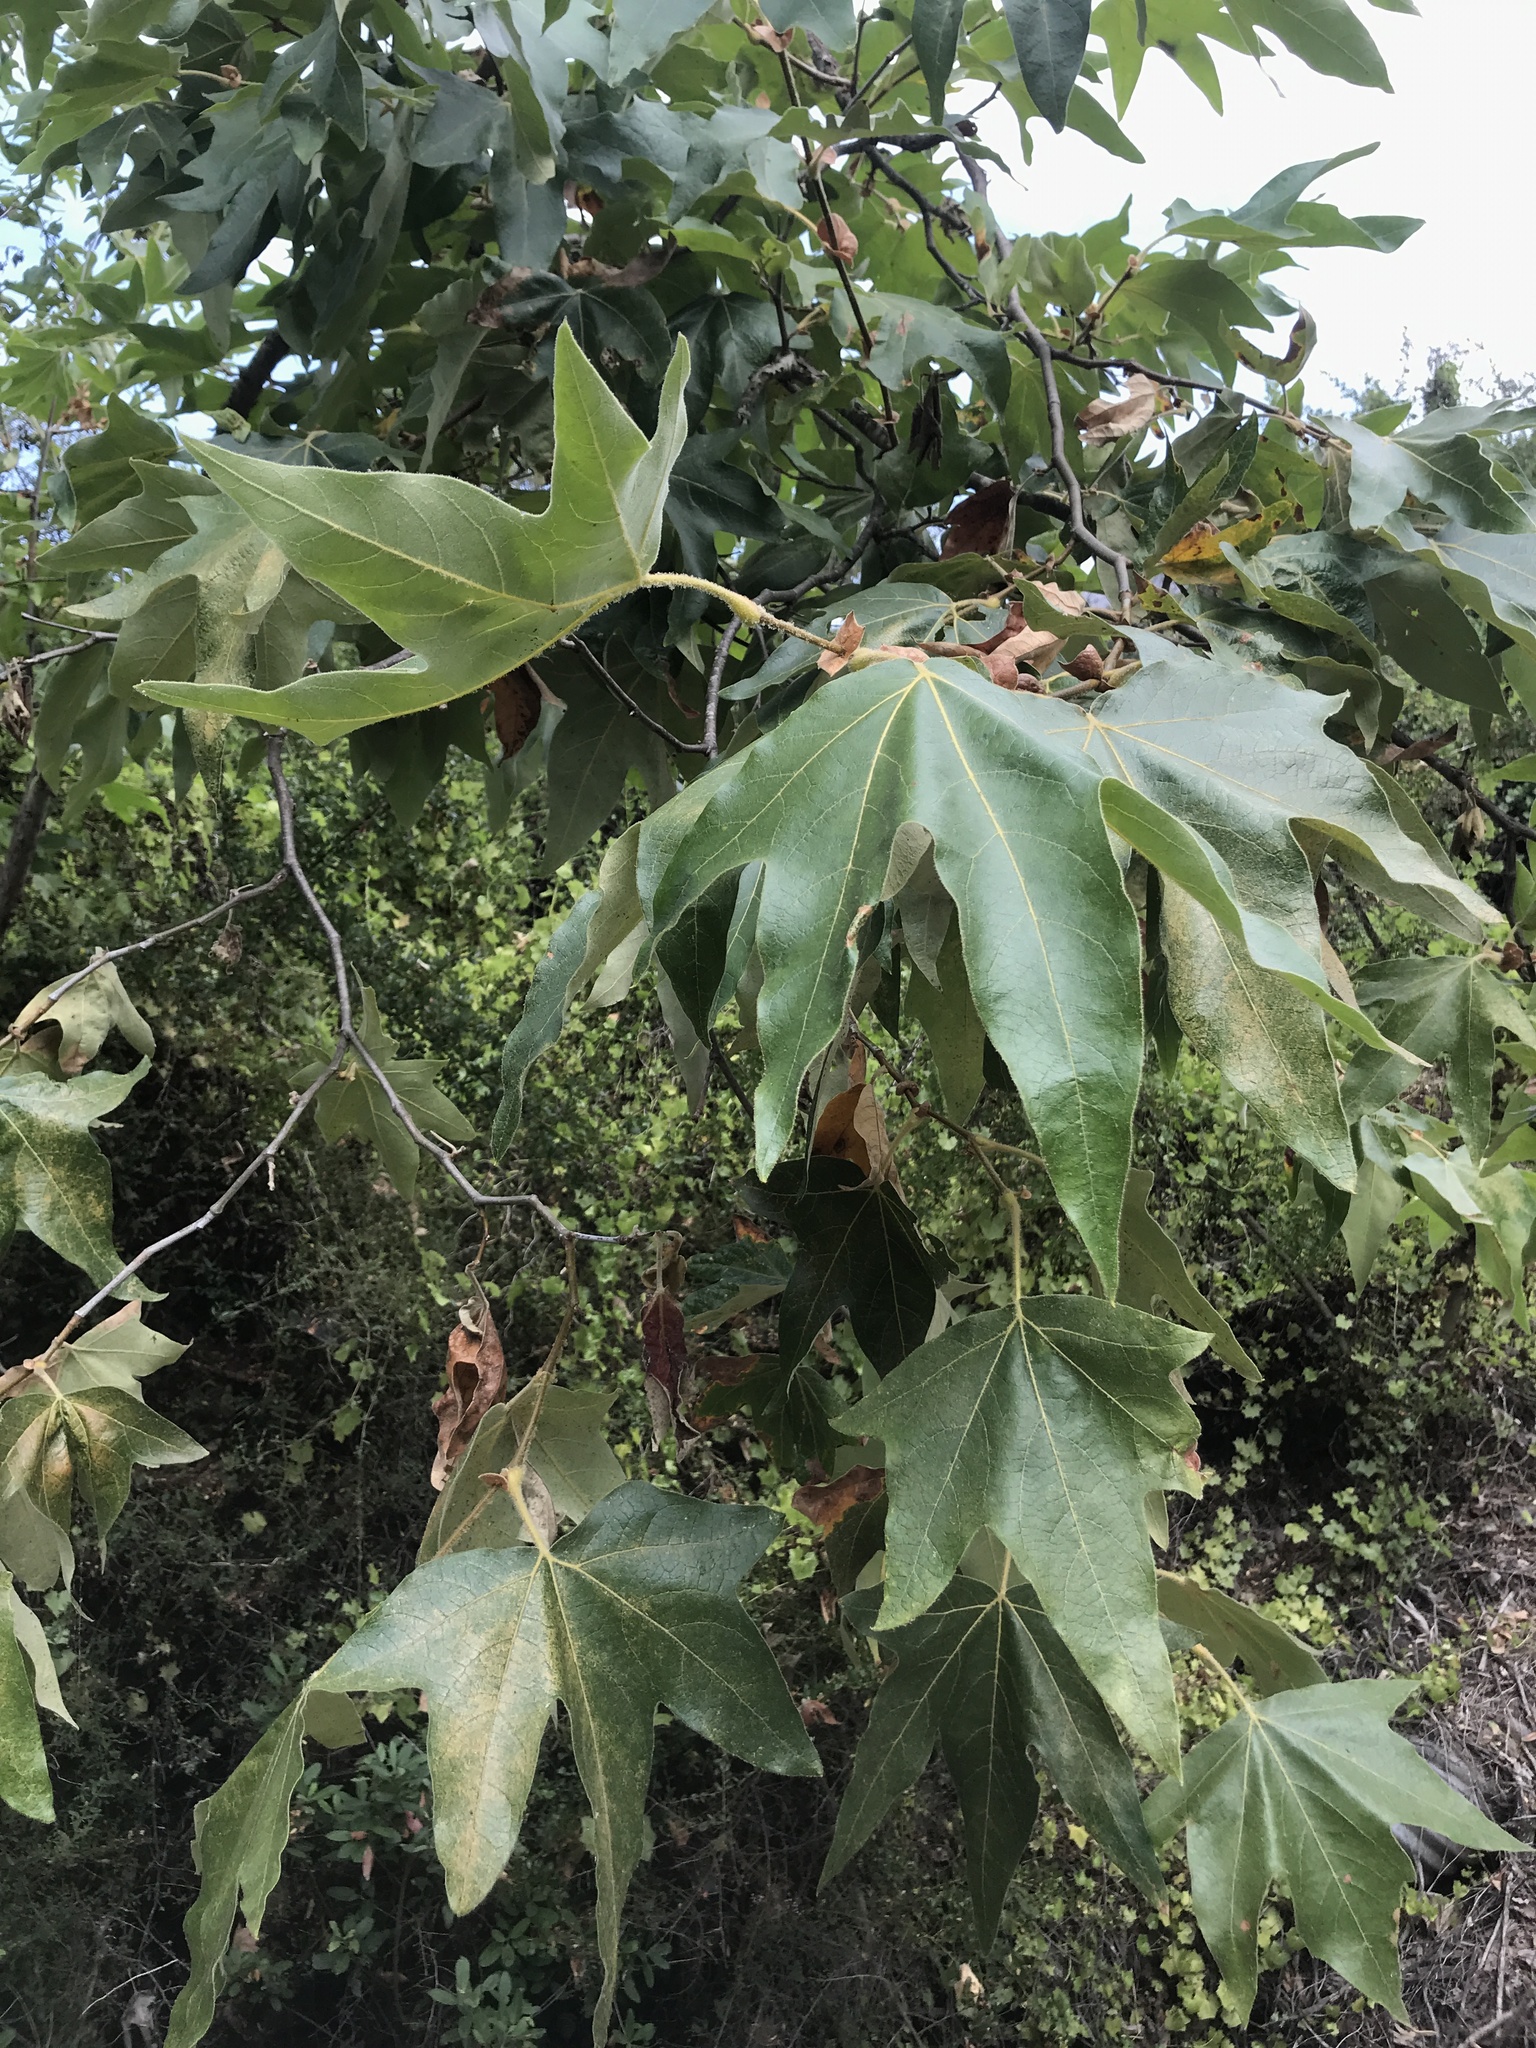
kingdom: Plantae
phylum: Tracheophyta
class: Magnoliopsida
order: Proteales
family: Platanaceae
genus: Platanus
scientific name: Platanus racemosa
